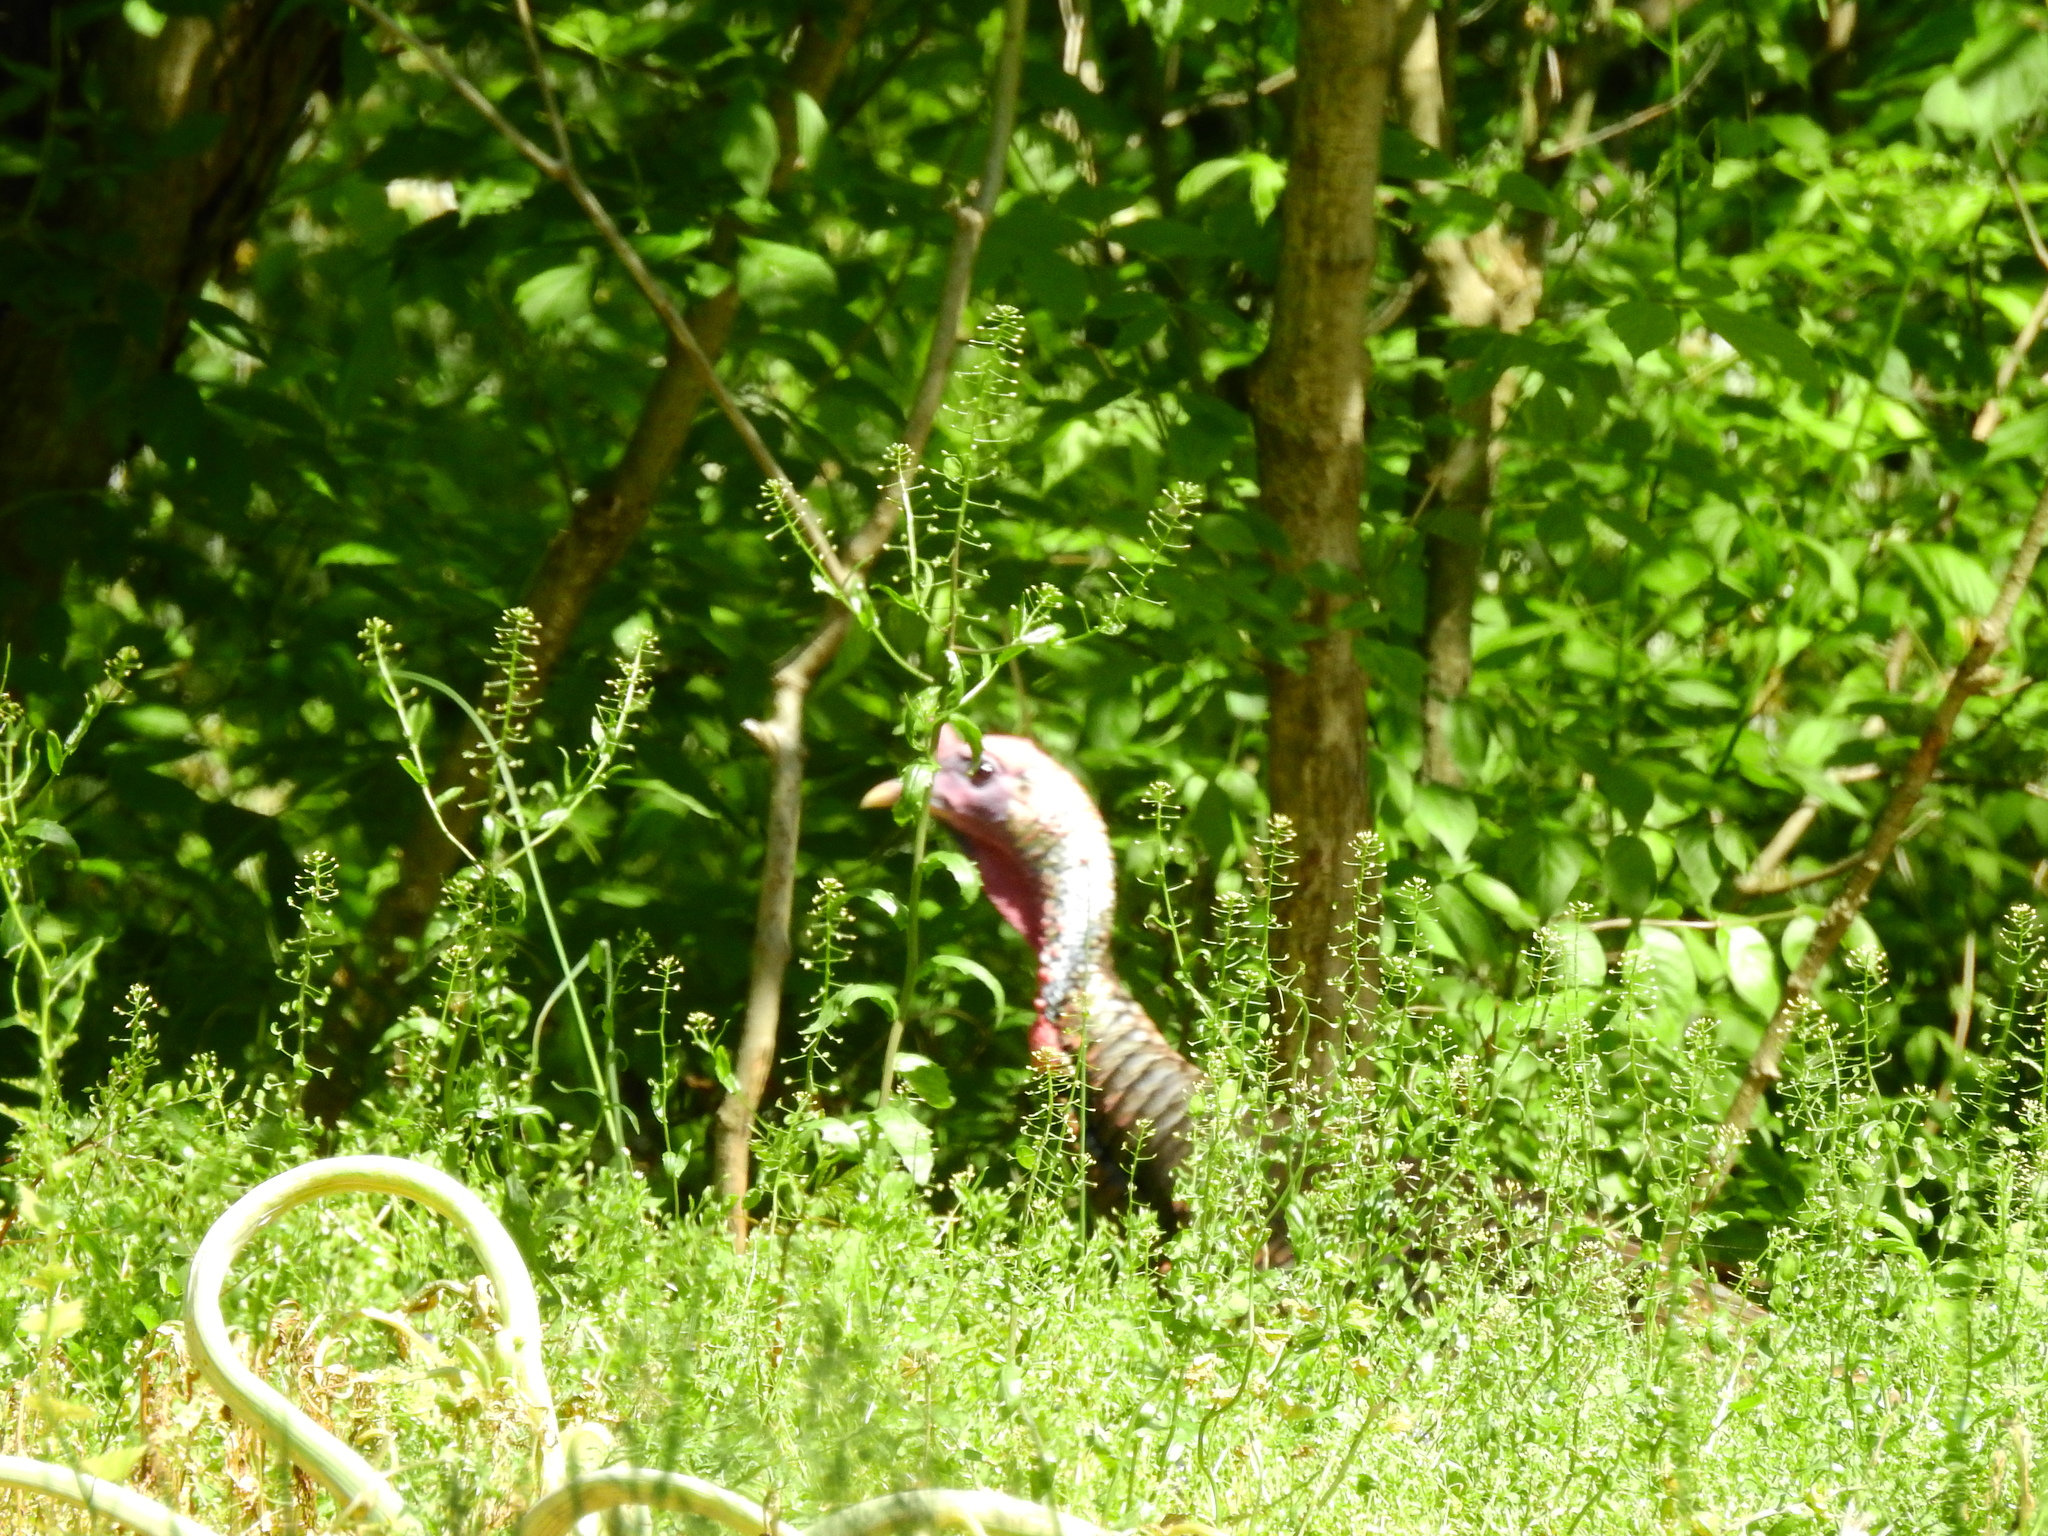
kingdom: Animalia
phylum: Chordata
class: Aves
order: Galliformes
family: Phasianidae
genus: Meleagris
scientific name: Meleagris gallopavo
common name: Wild turkey
